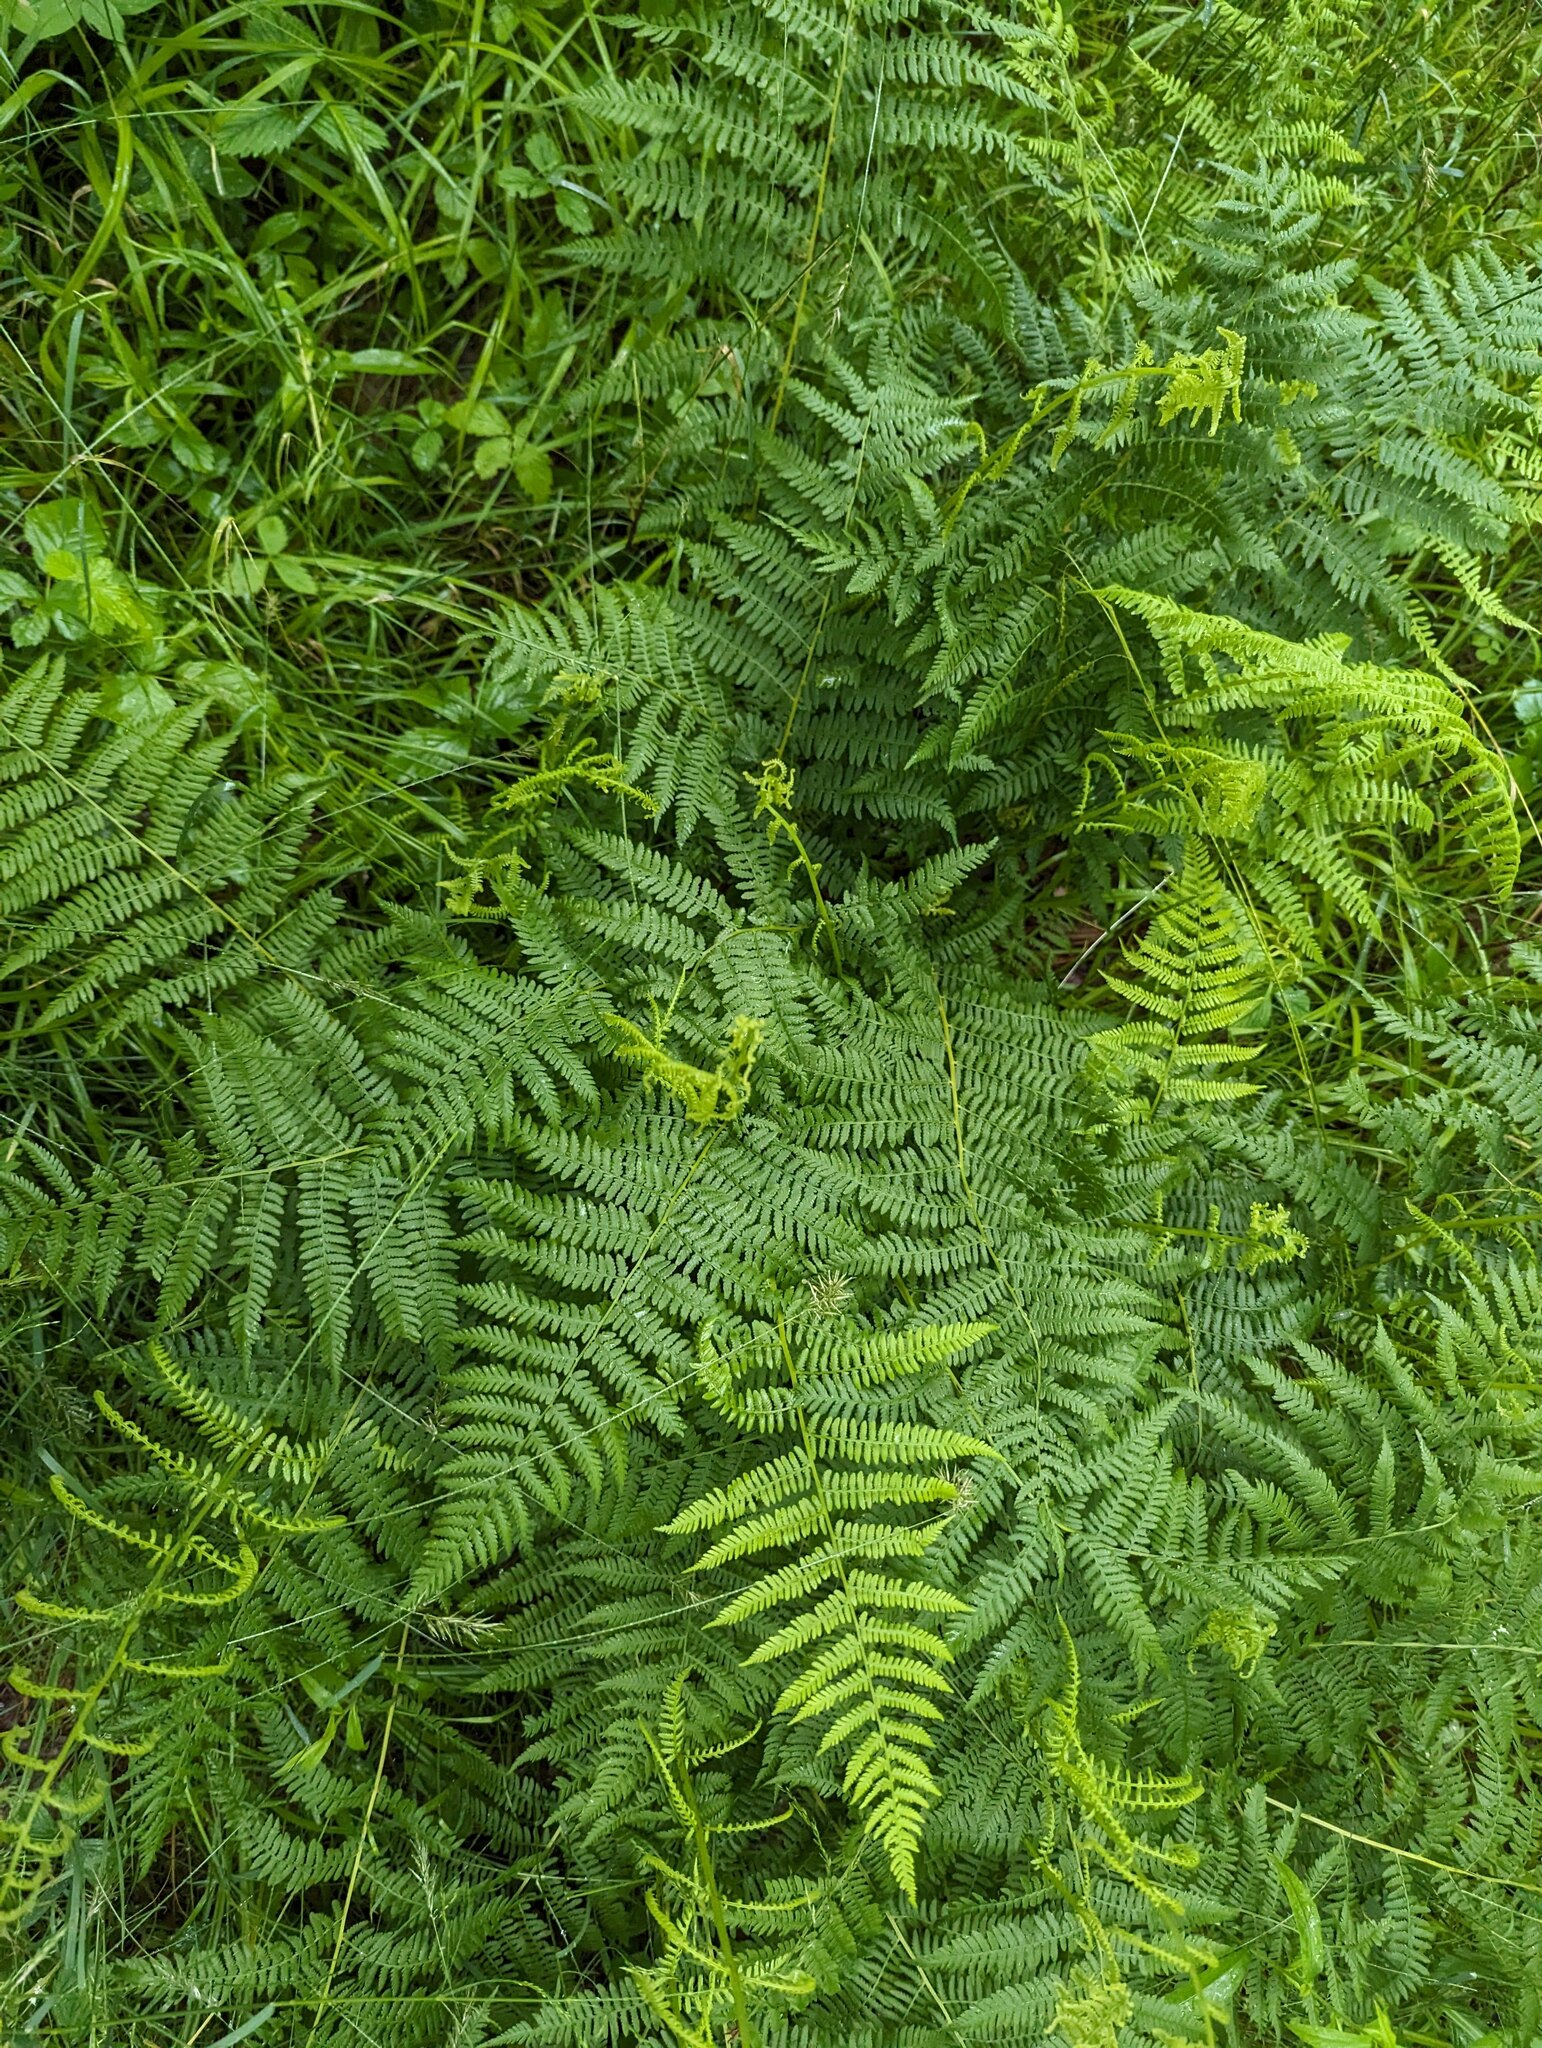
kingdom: Plantae
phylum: Tracheophyta
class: Polypodiopsida
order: Polypodiales
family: Athyriaceae
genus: Athyrium
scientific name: Athyrium angustum
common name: Northern lady fern
